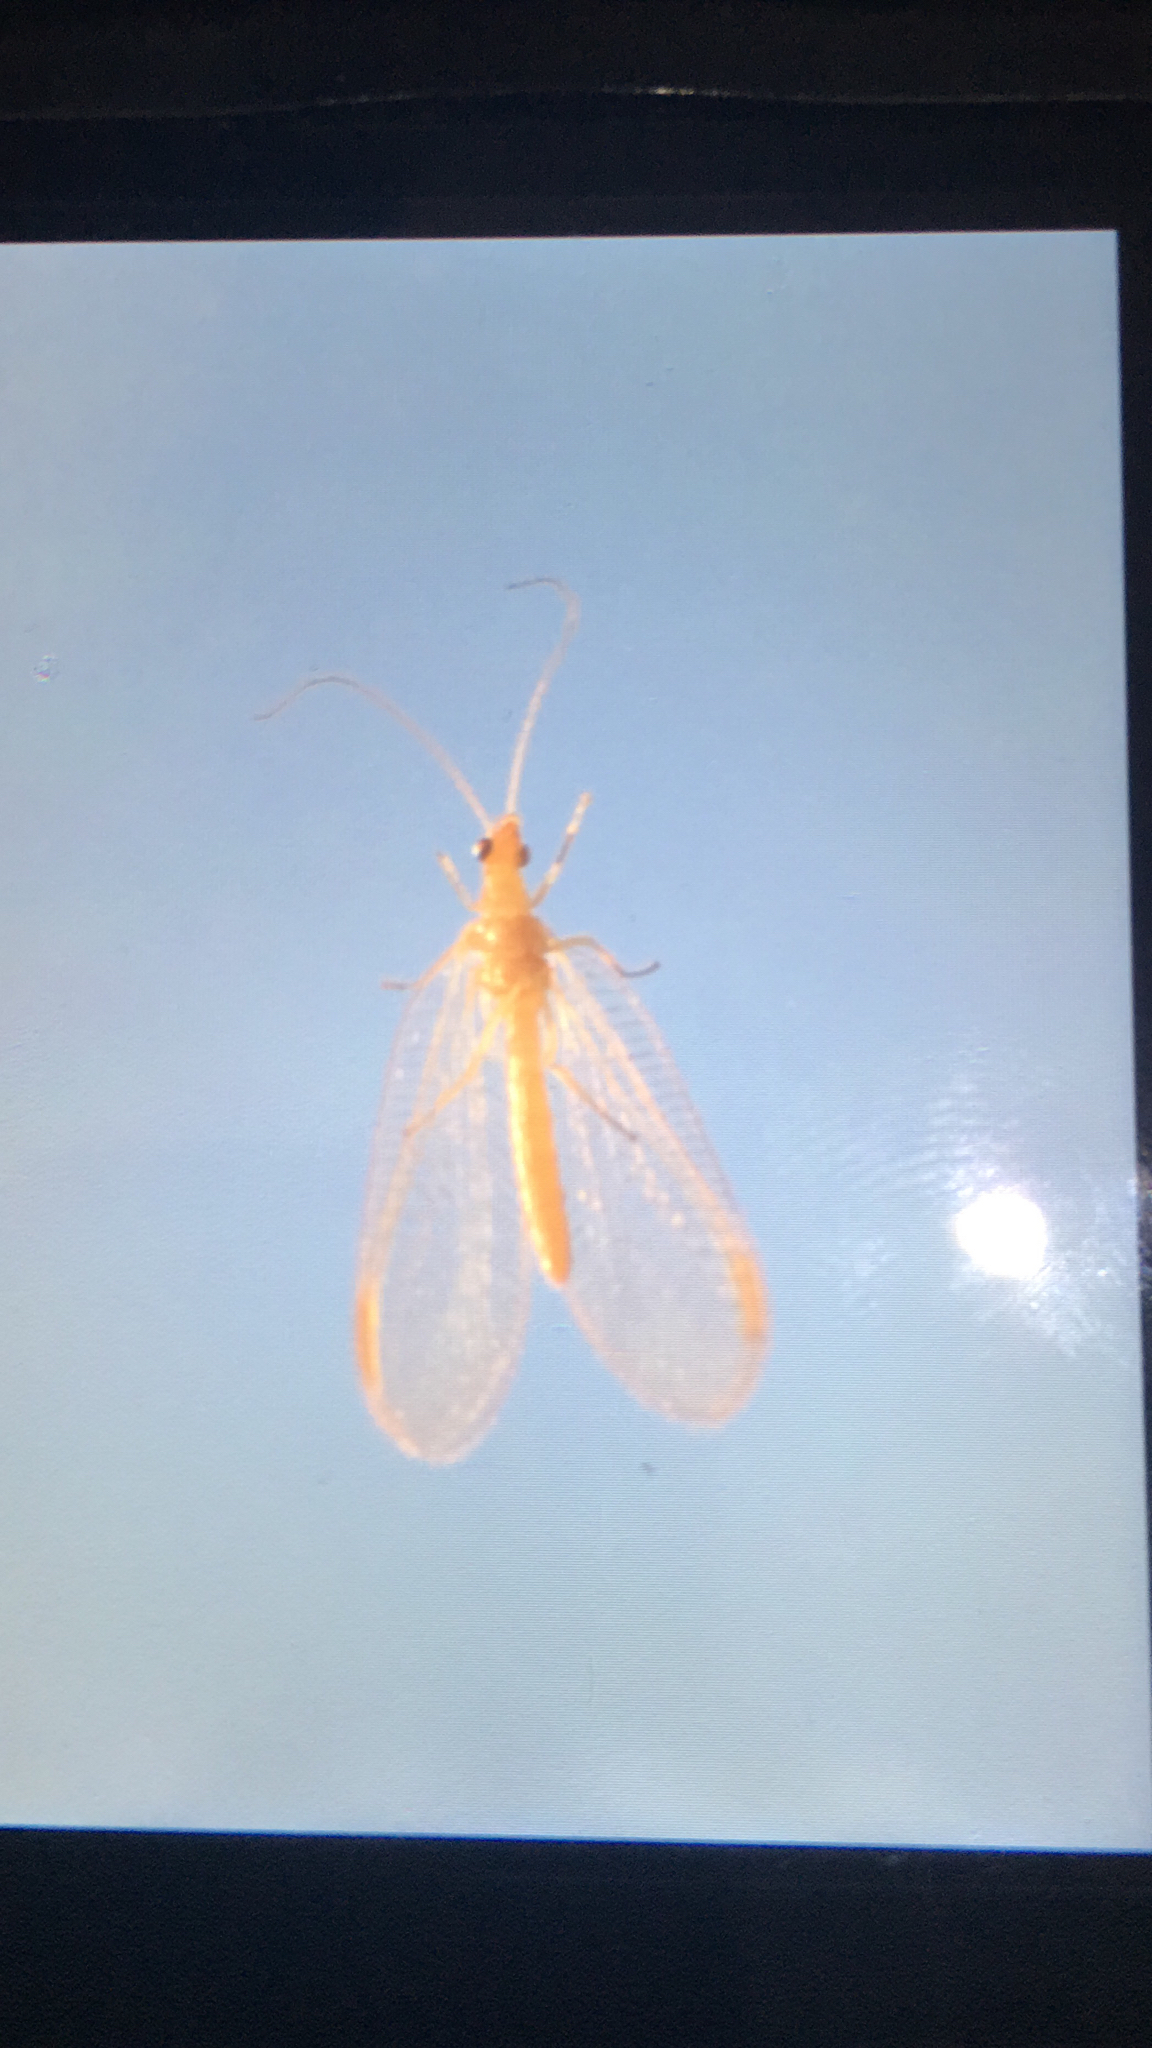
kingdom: Animalia
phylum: Arthropoda
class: Insecta
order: Neuroptera
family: Chrysopidae
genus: Chrysoperla
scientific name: Chrysoperla
